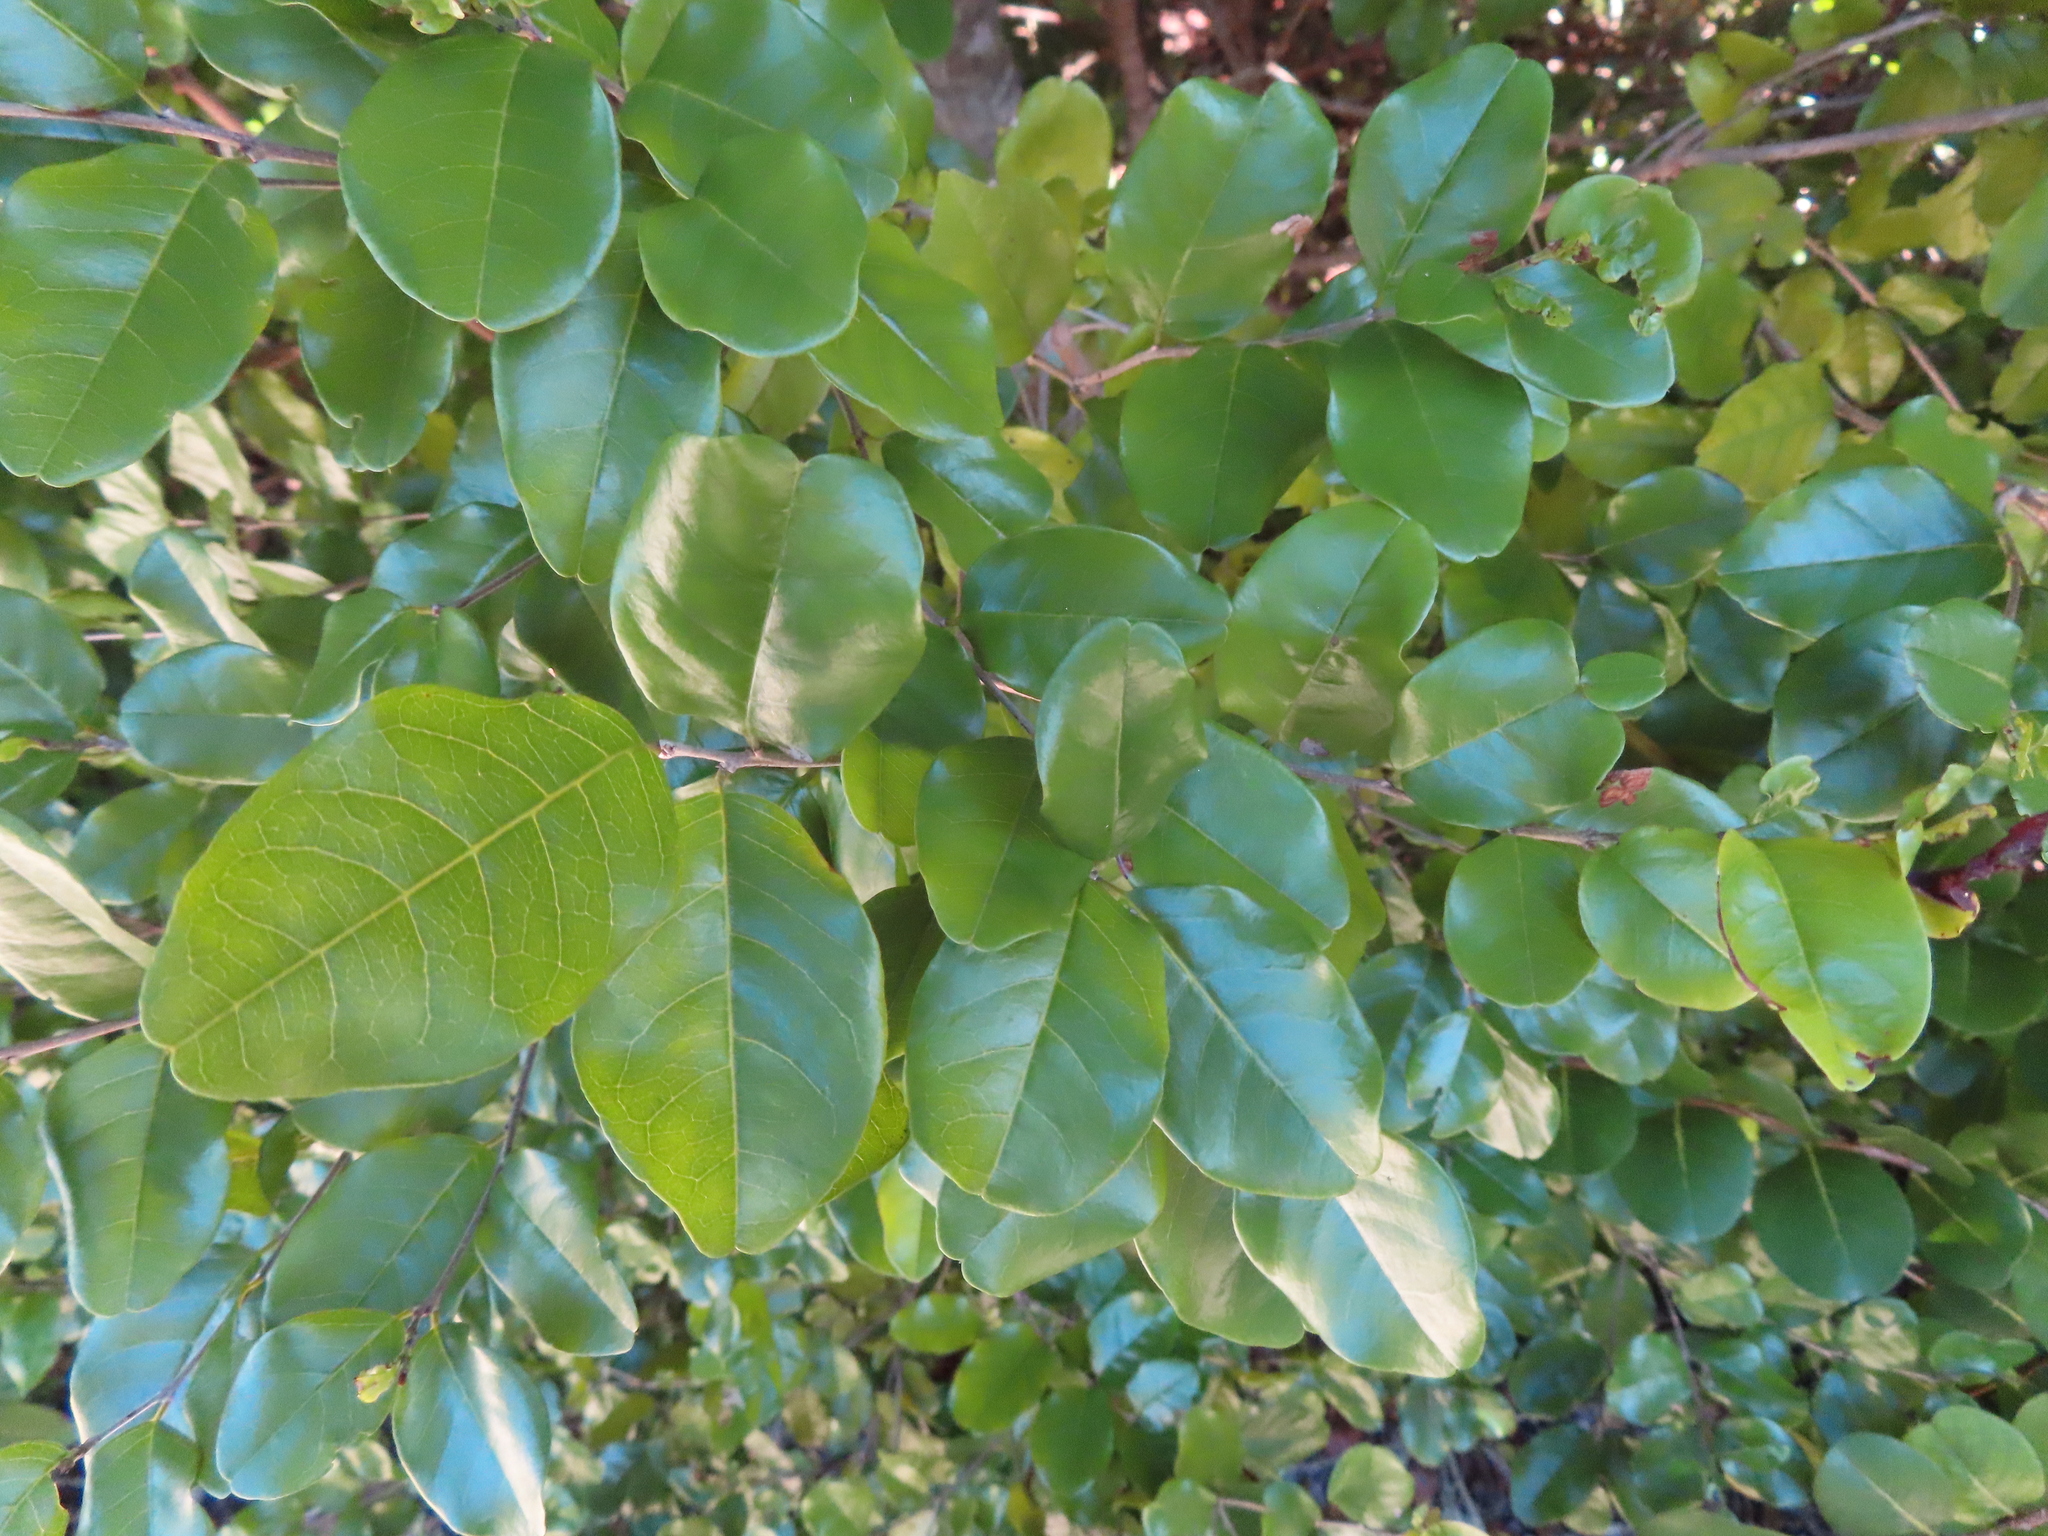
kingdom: Plantae
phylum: Tracheophyta
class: Magnoliopsida
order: Rosales
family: Rhamnaceae
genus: Krugiodendron
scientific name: Krugiodendron ferreum
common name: Iron wood
